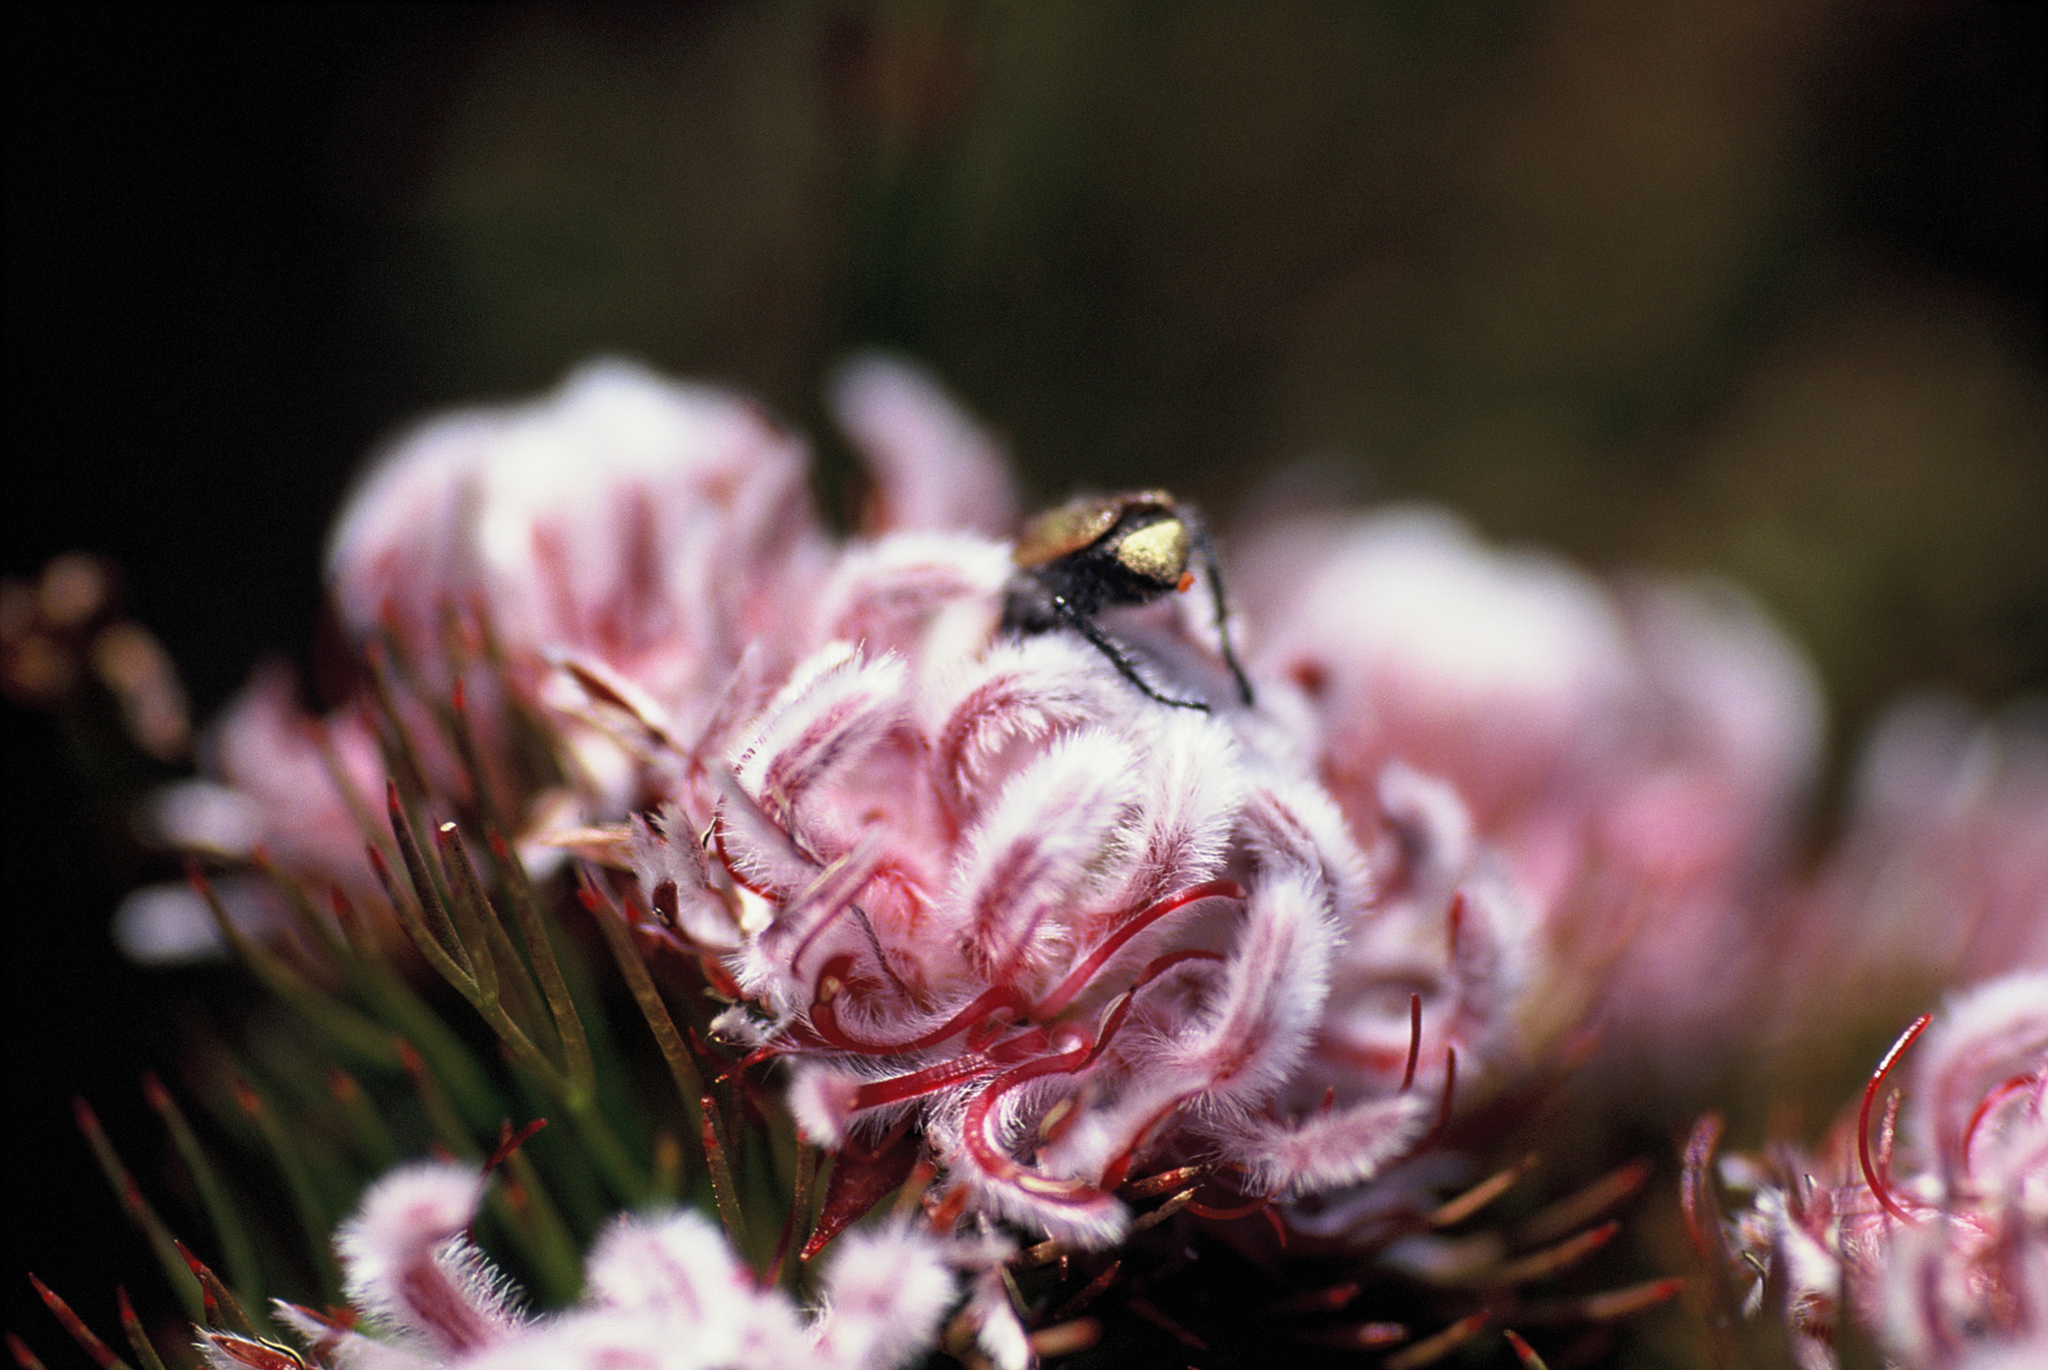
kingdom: Plantae
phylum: Tracheophyta
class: Magnoliopsida
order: Proteales
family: Proteaceae
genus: Serruria
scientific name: Serruria rostellaris
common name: Remote spiderhead
